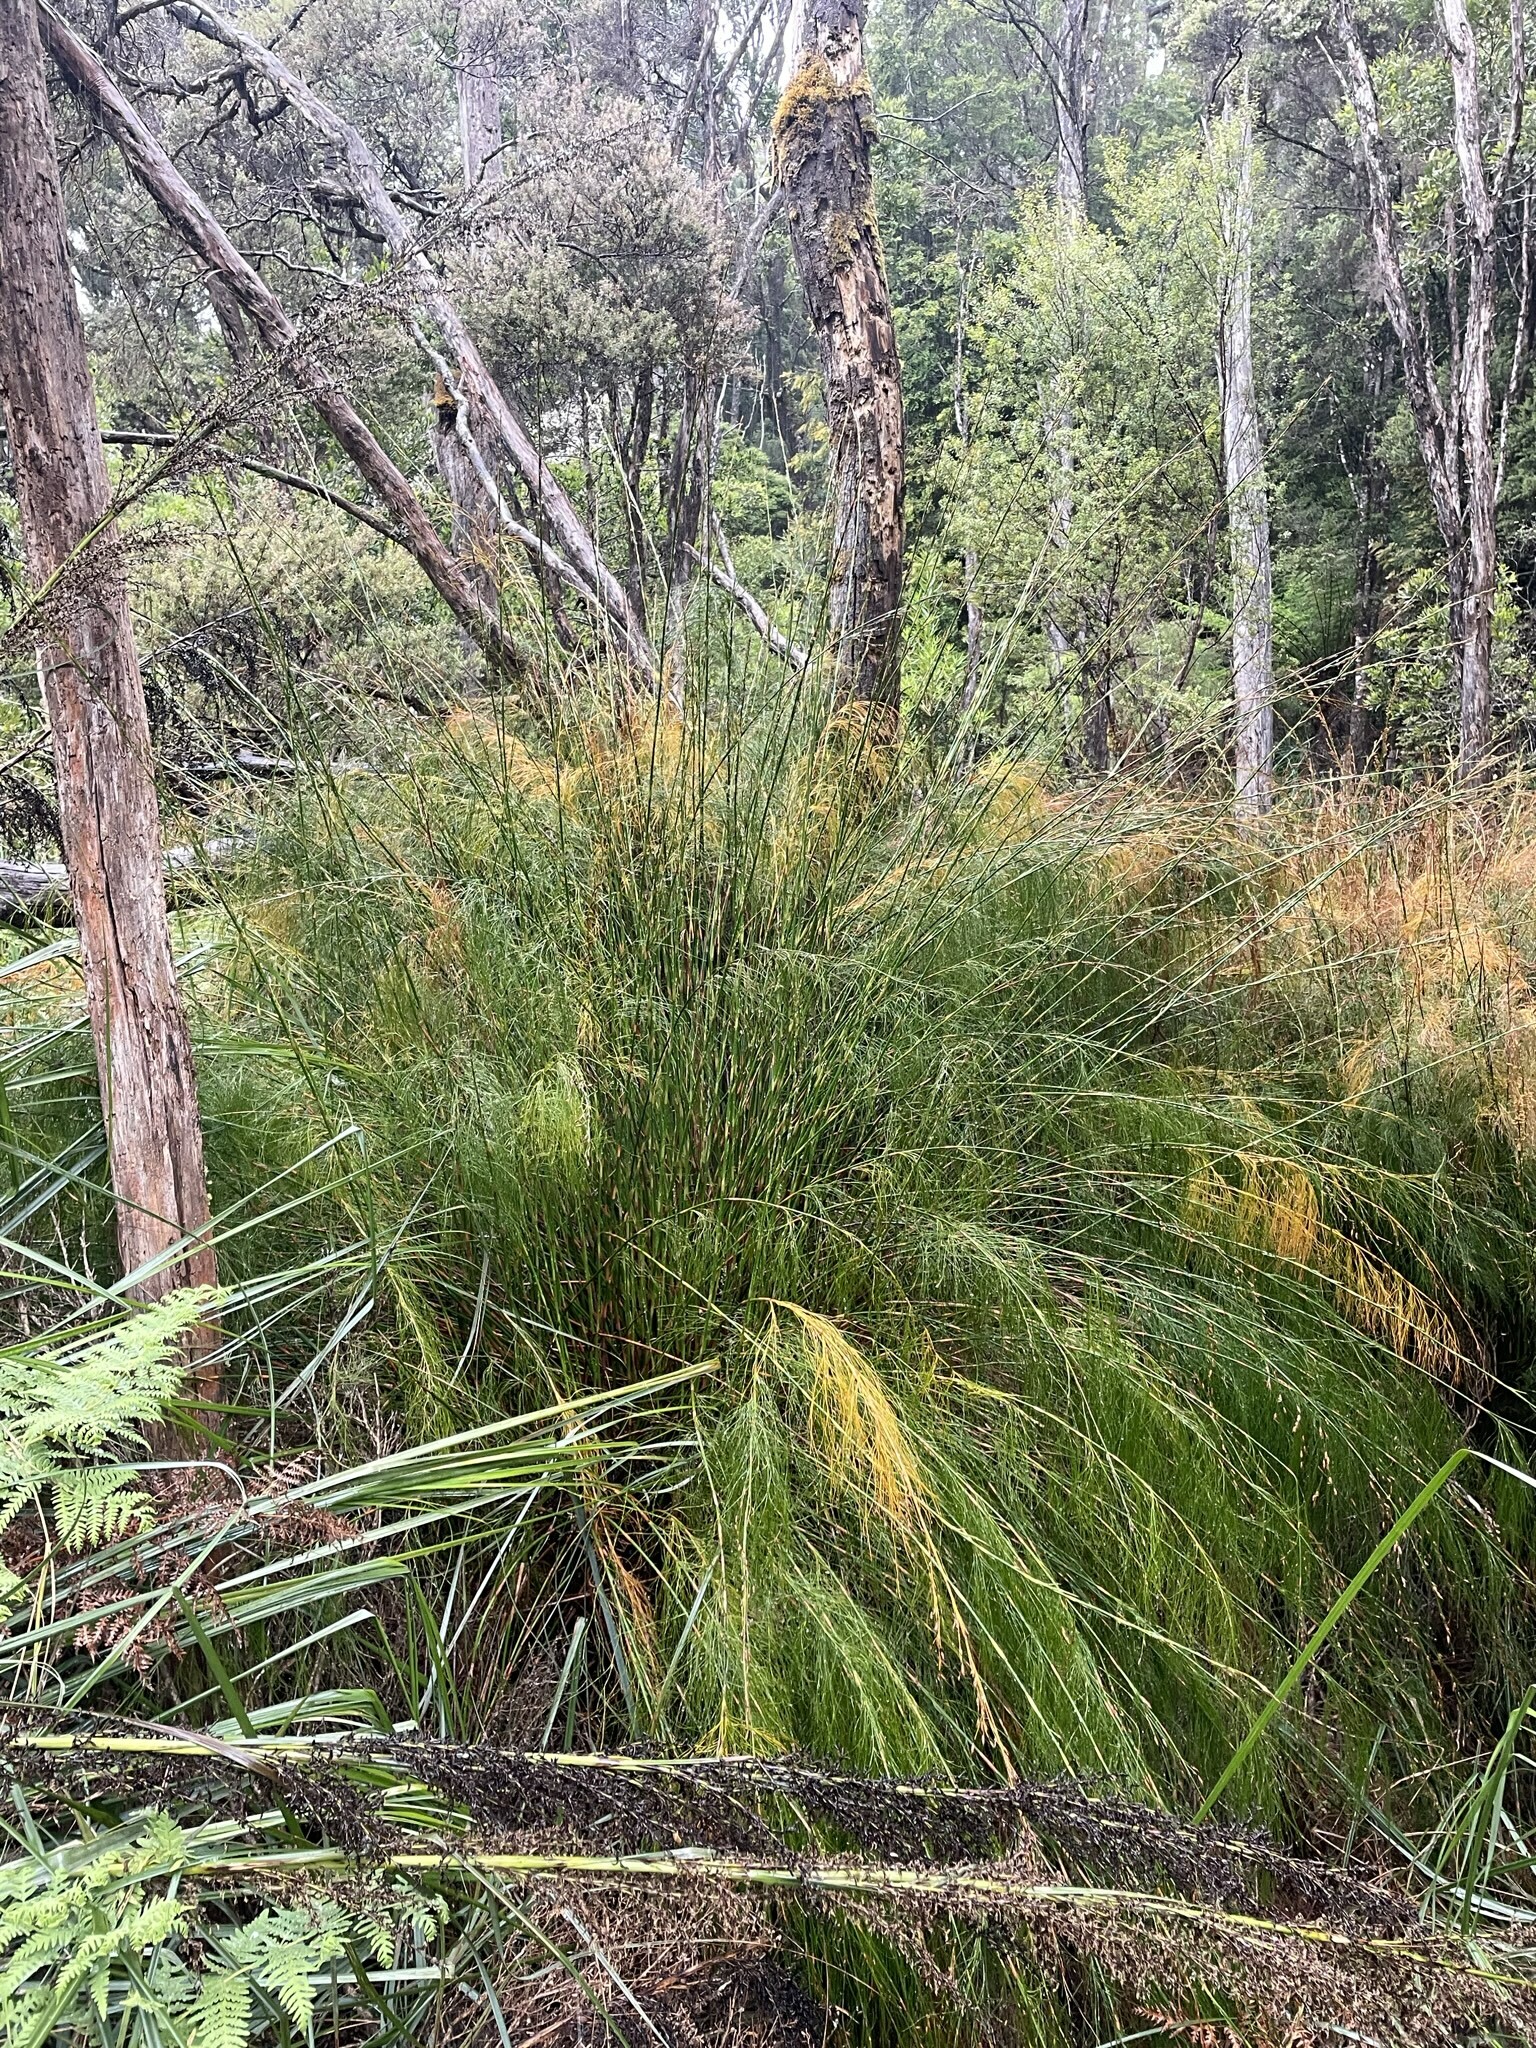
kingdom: Plantae
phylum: Tracheophyta
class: Liliopsida
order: Poales
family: Restionaceae
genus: Baloskion
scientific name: Baloskion tetraphyllum
